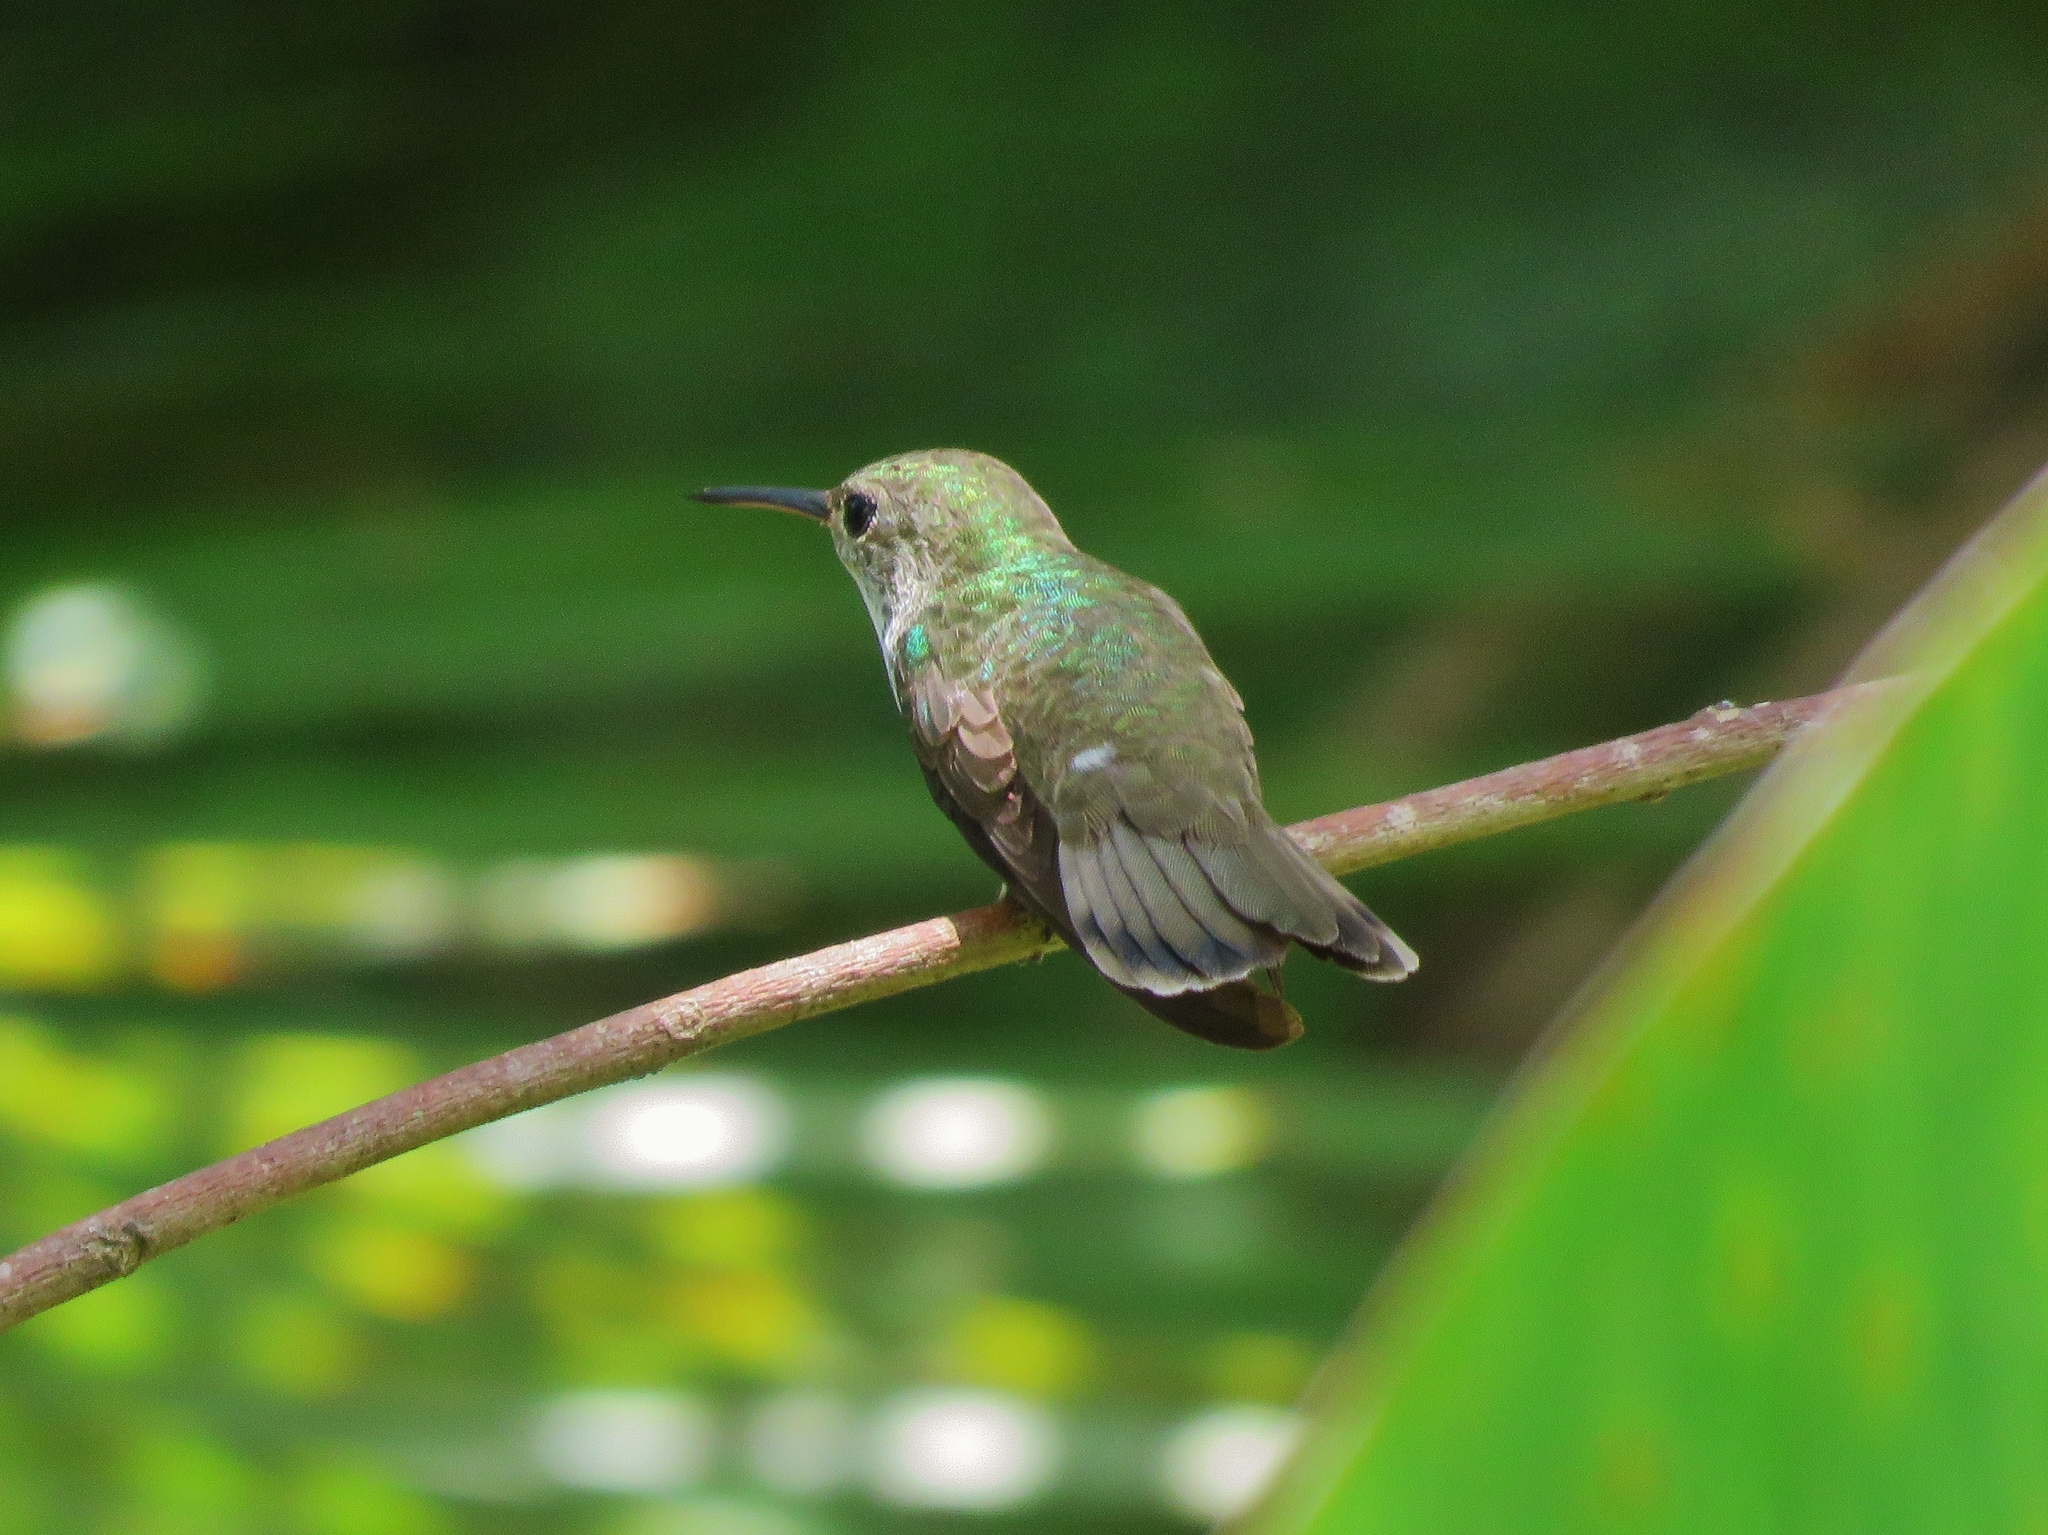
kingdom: Animalia
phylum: Chordata
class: Aves
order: Apodiformes
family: Trochilidae
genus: Chlorestes
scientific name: Chlorestes candida
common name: White-bellied emerald
